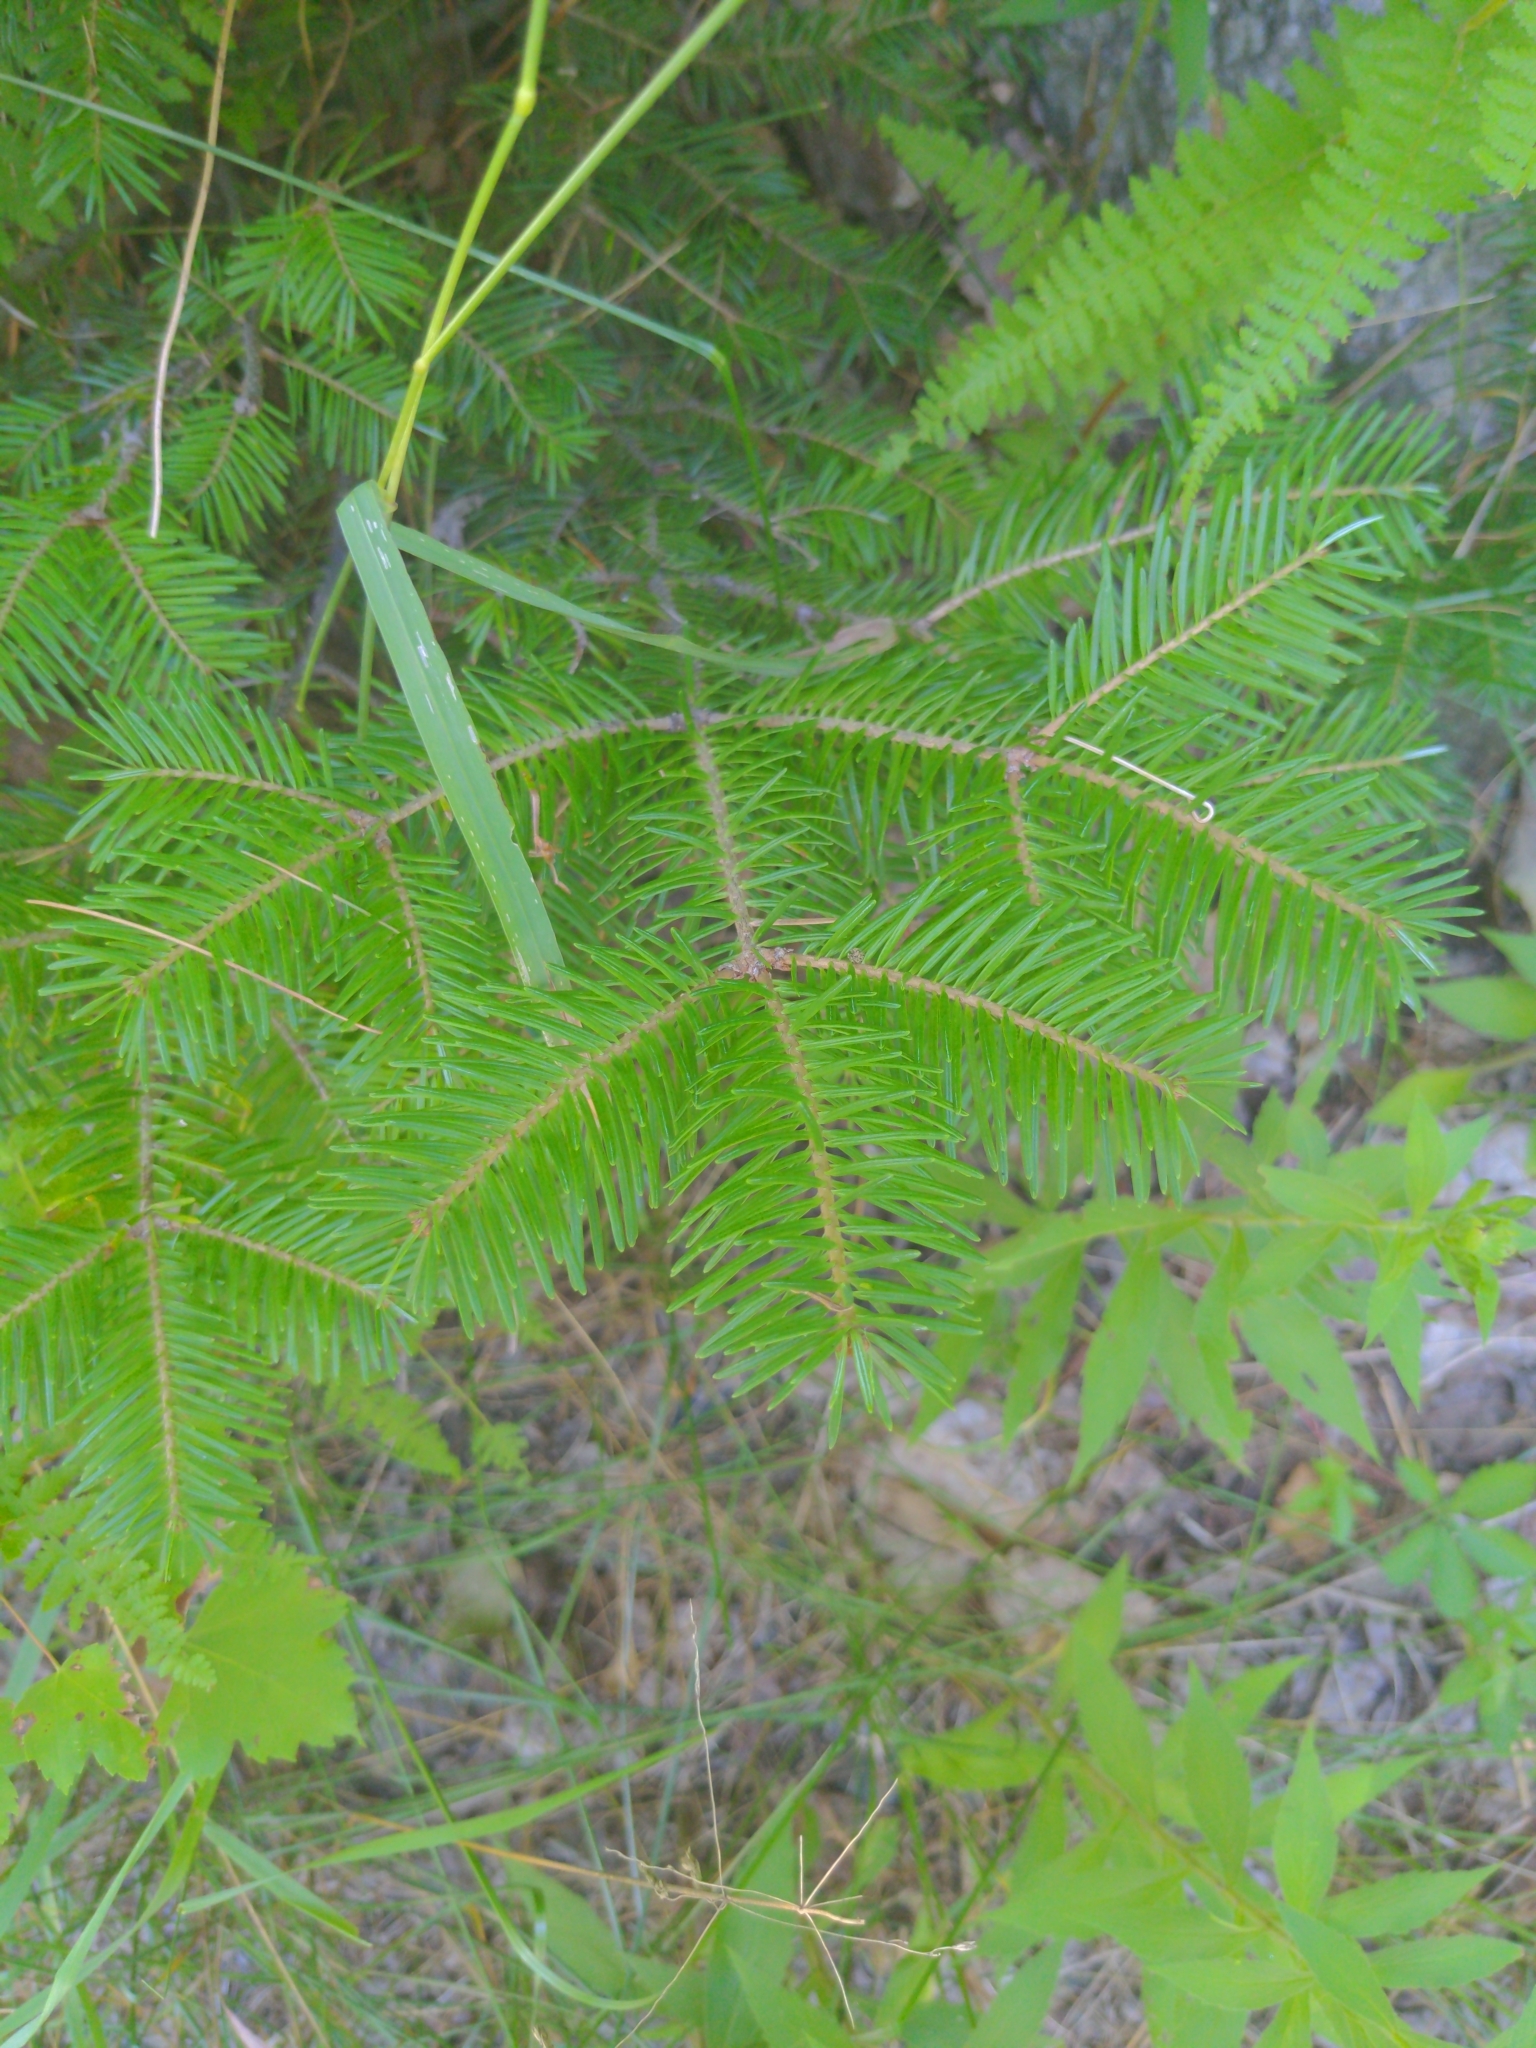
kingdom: Plantae
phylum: Tracheophyta
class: Pinopsida
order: Pinales
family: Pinaceae
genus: Abies
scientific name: Abies balsamea
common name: Balsam fir
